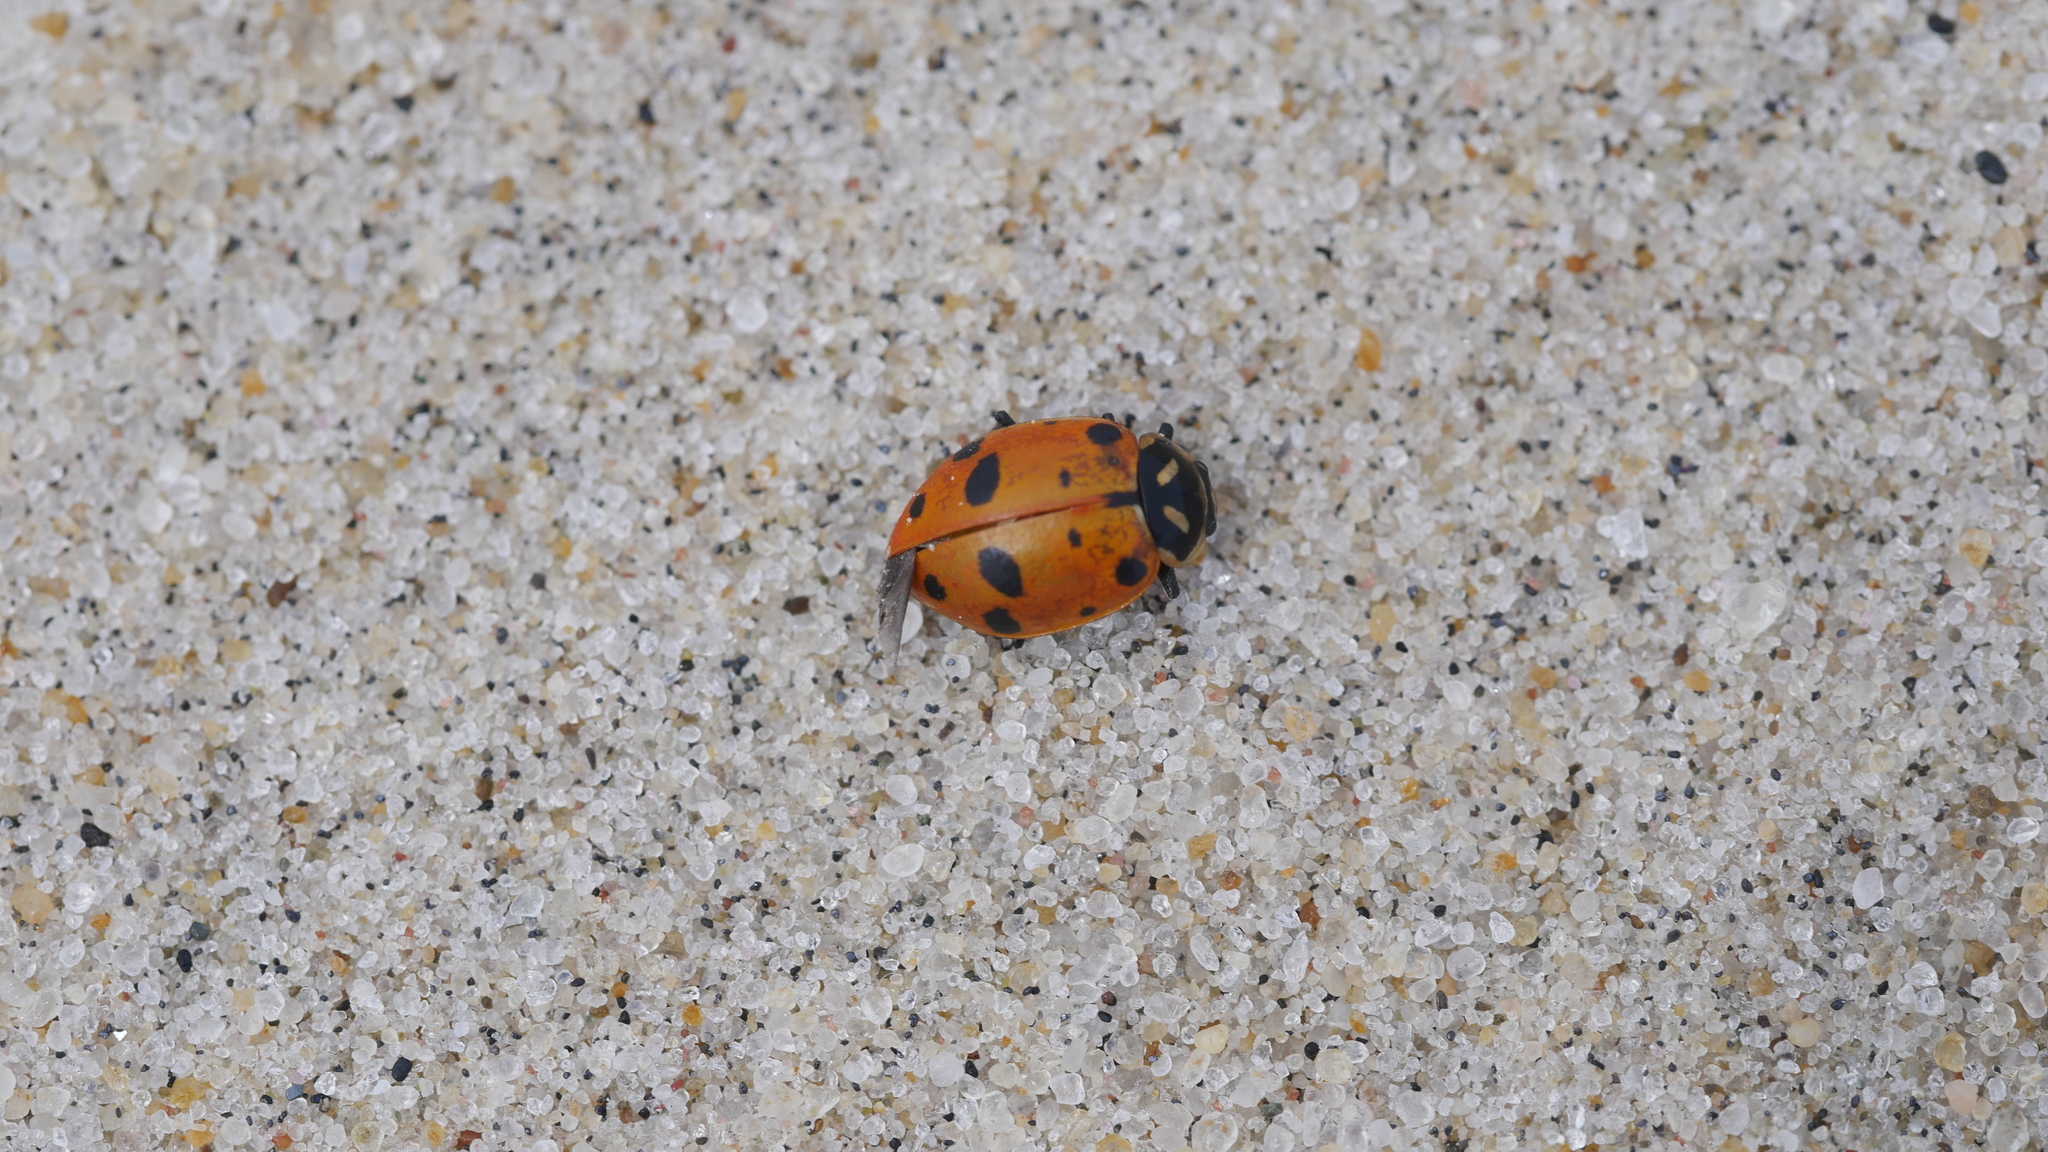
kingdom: Animalia
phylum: Arthropoda
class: Insecta
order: Coleoptera
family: Coccinellidae
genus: Hippodamia
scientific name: Hippodamia convergens
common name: Convergent lady beetle
